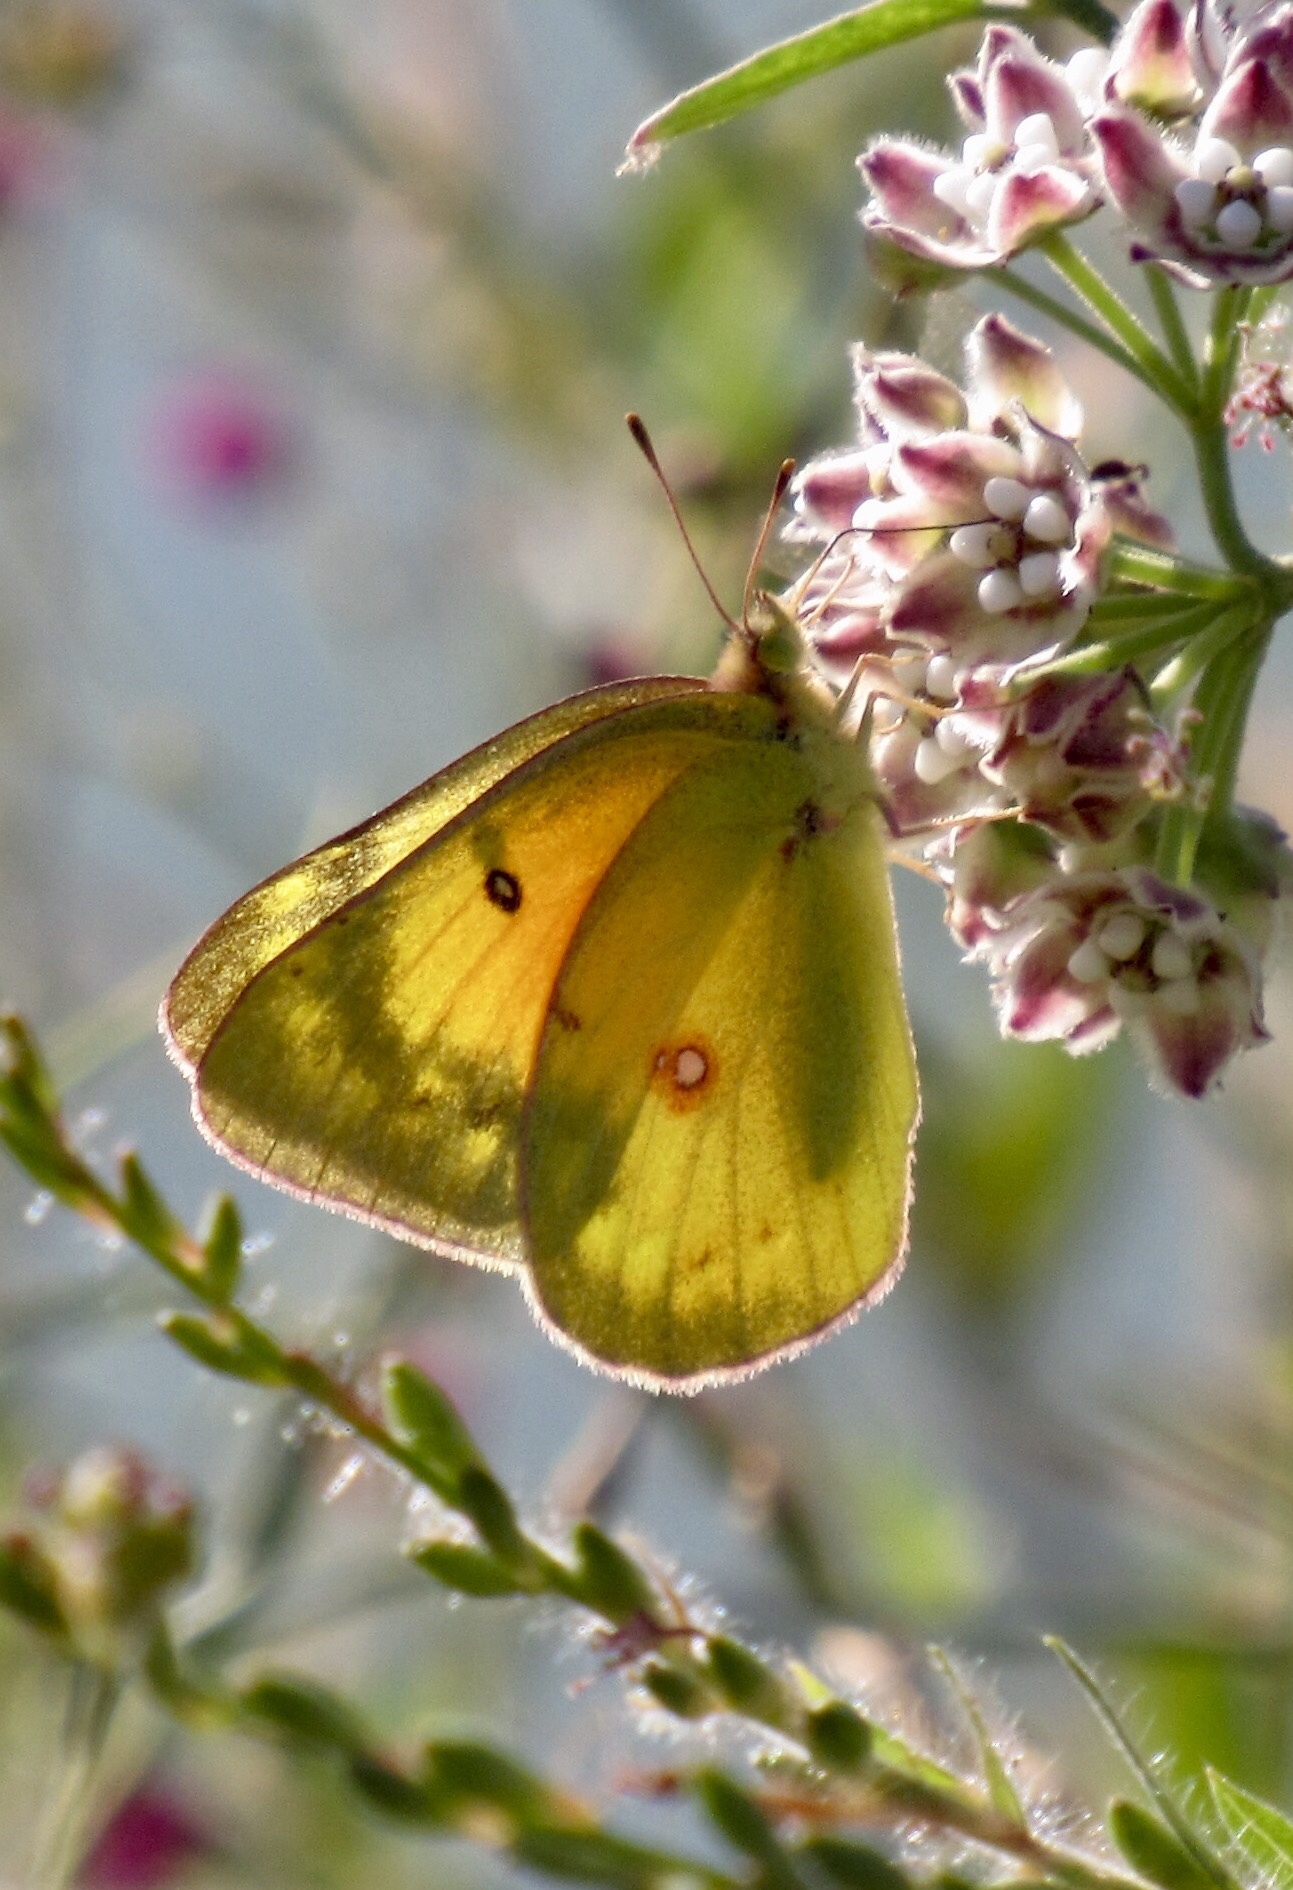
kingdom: Animalia
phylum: Arthropoda
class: Insecta
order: Lepidoptera
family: Pieridae
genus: Colias
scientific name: Colias eurytheme
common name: Alfalfa butterfly
